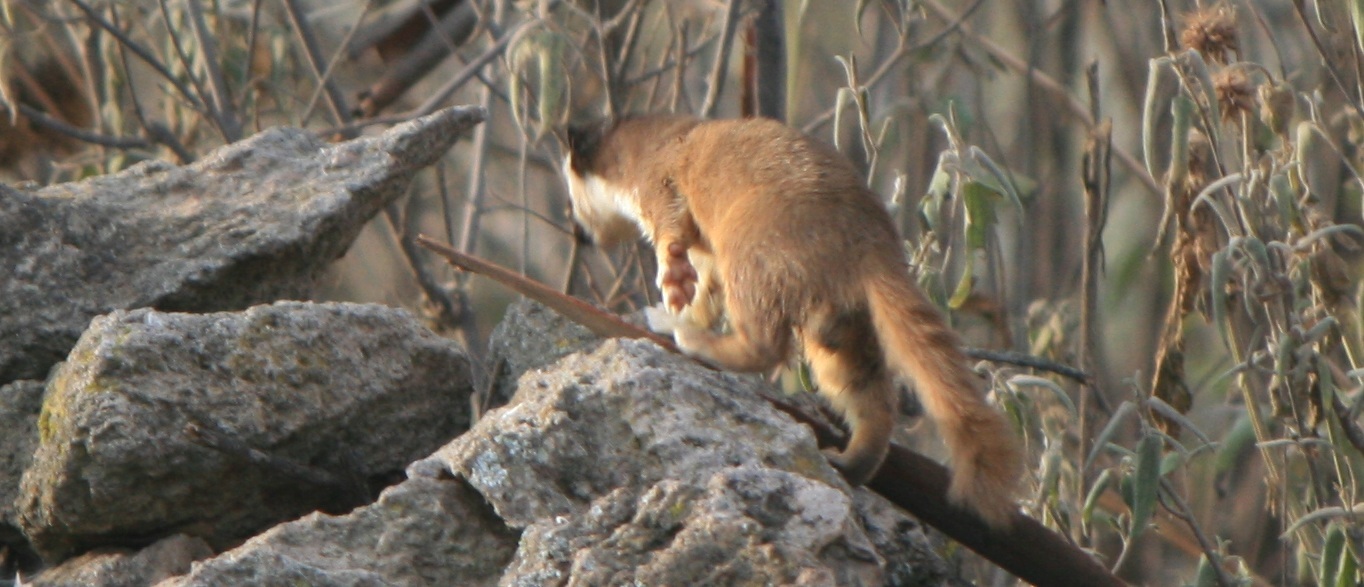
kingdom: Animalia
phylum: Chordata
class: Mammalia
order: Carnivora
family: Mustelidae
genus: Mustela
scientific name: Mustela
